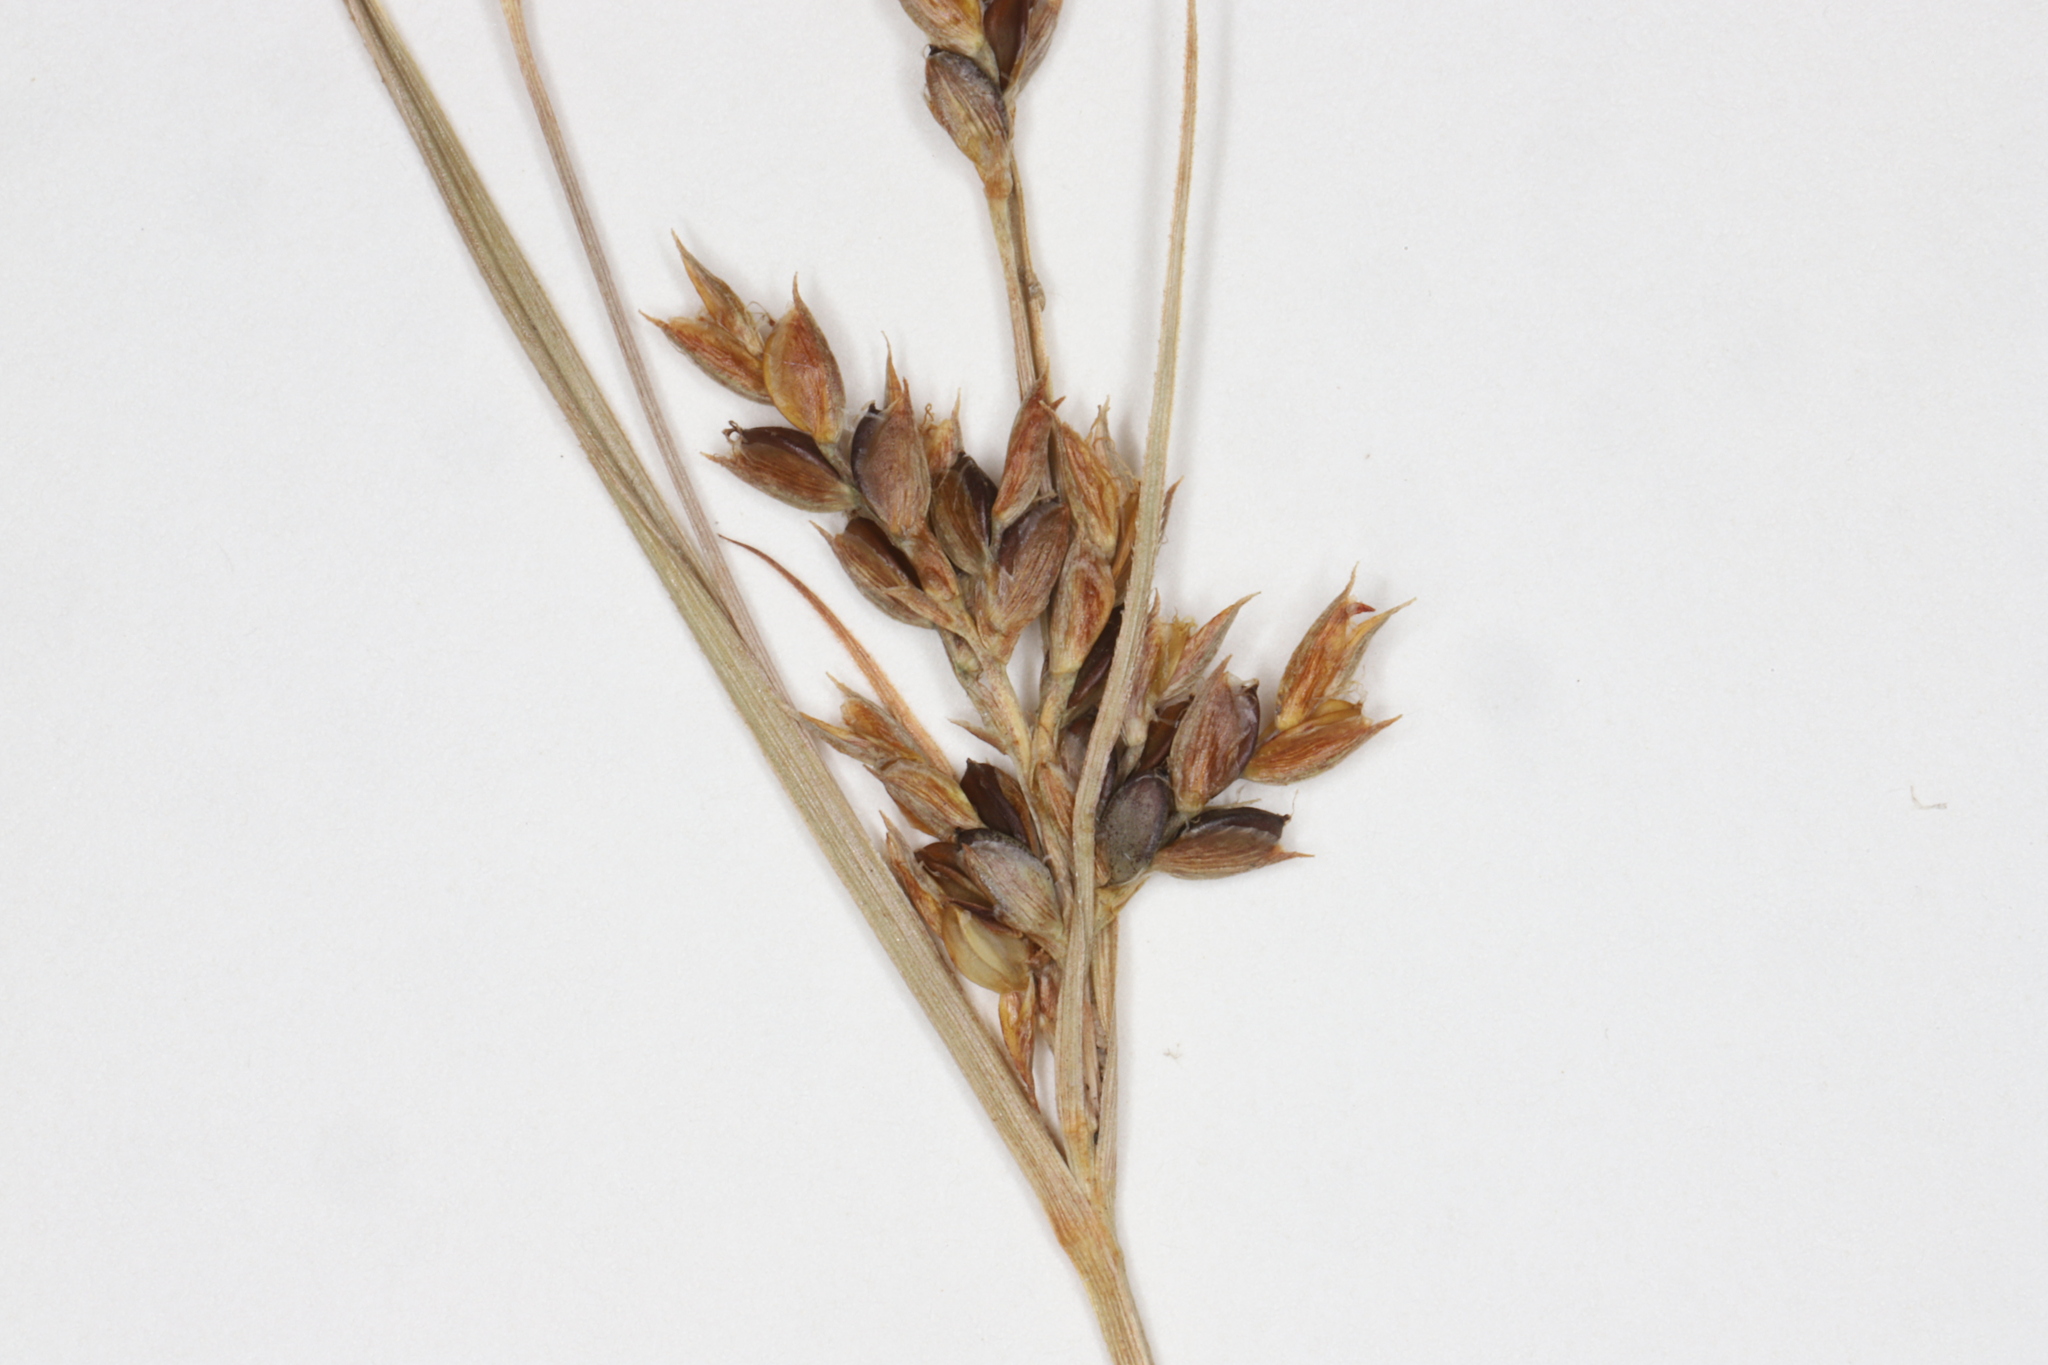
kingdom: Plantae
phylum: Tracheophyta
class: Liliopsida
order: Poales
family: Cyperaceae
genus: Cyperus
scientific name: Cyperus schweinitzii
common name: Schweinitz's cyperus
